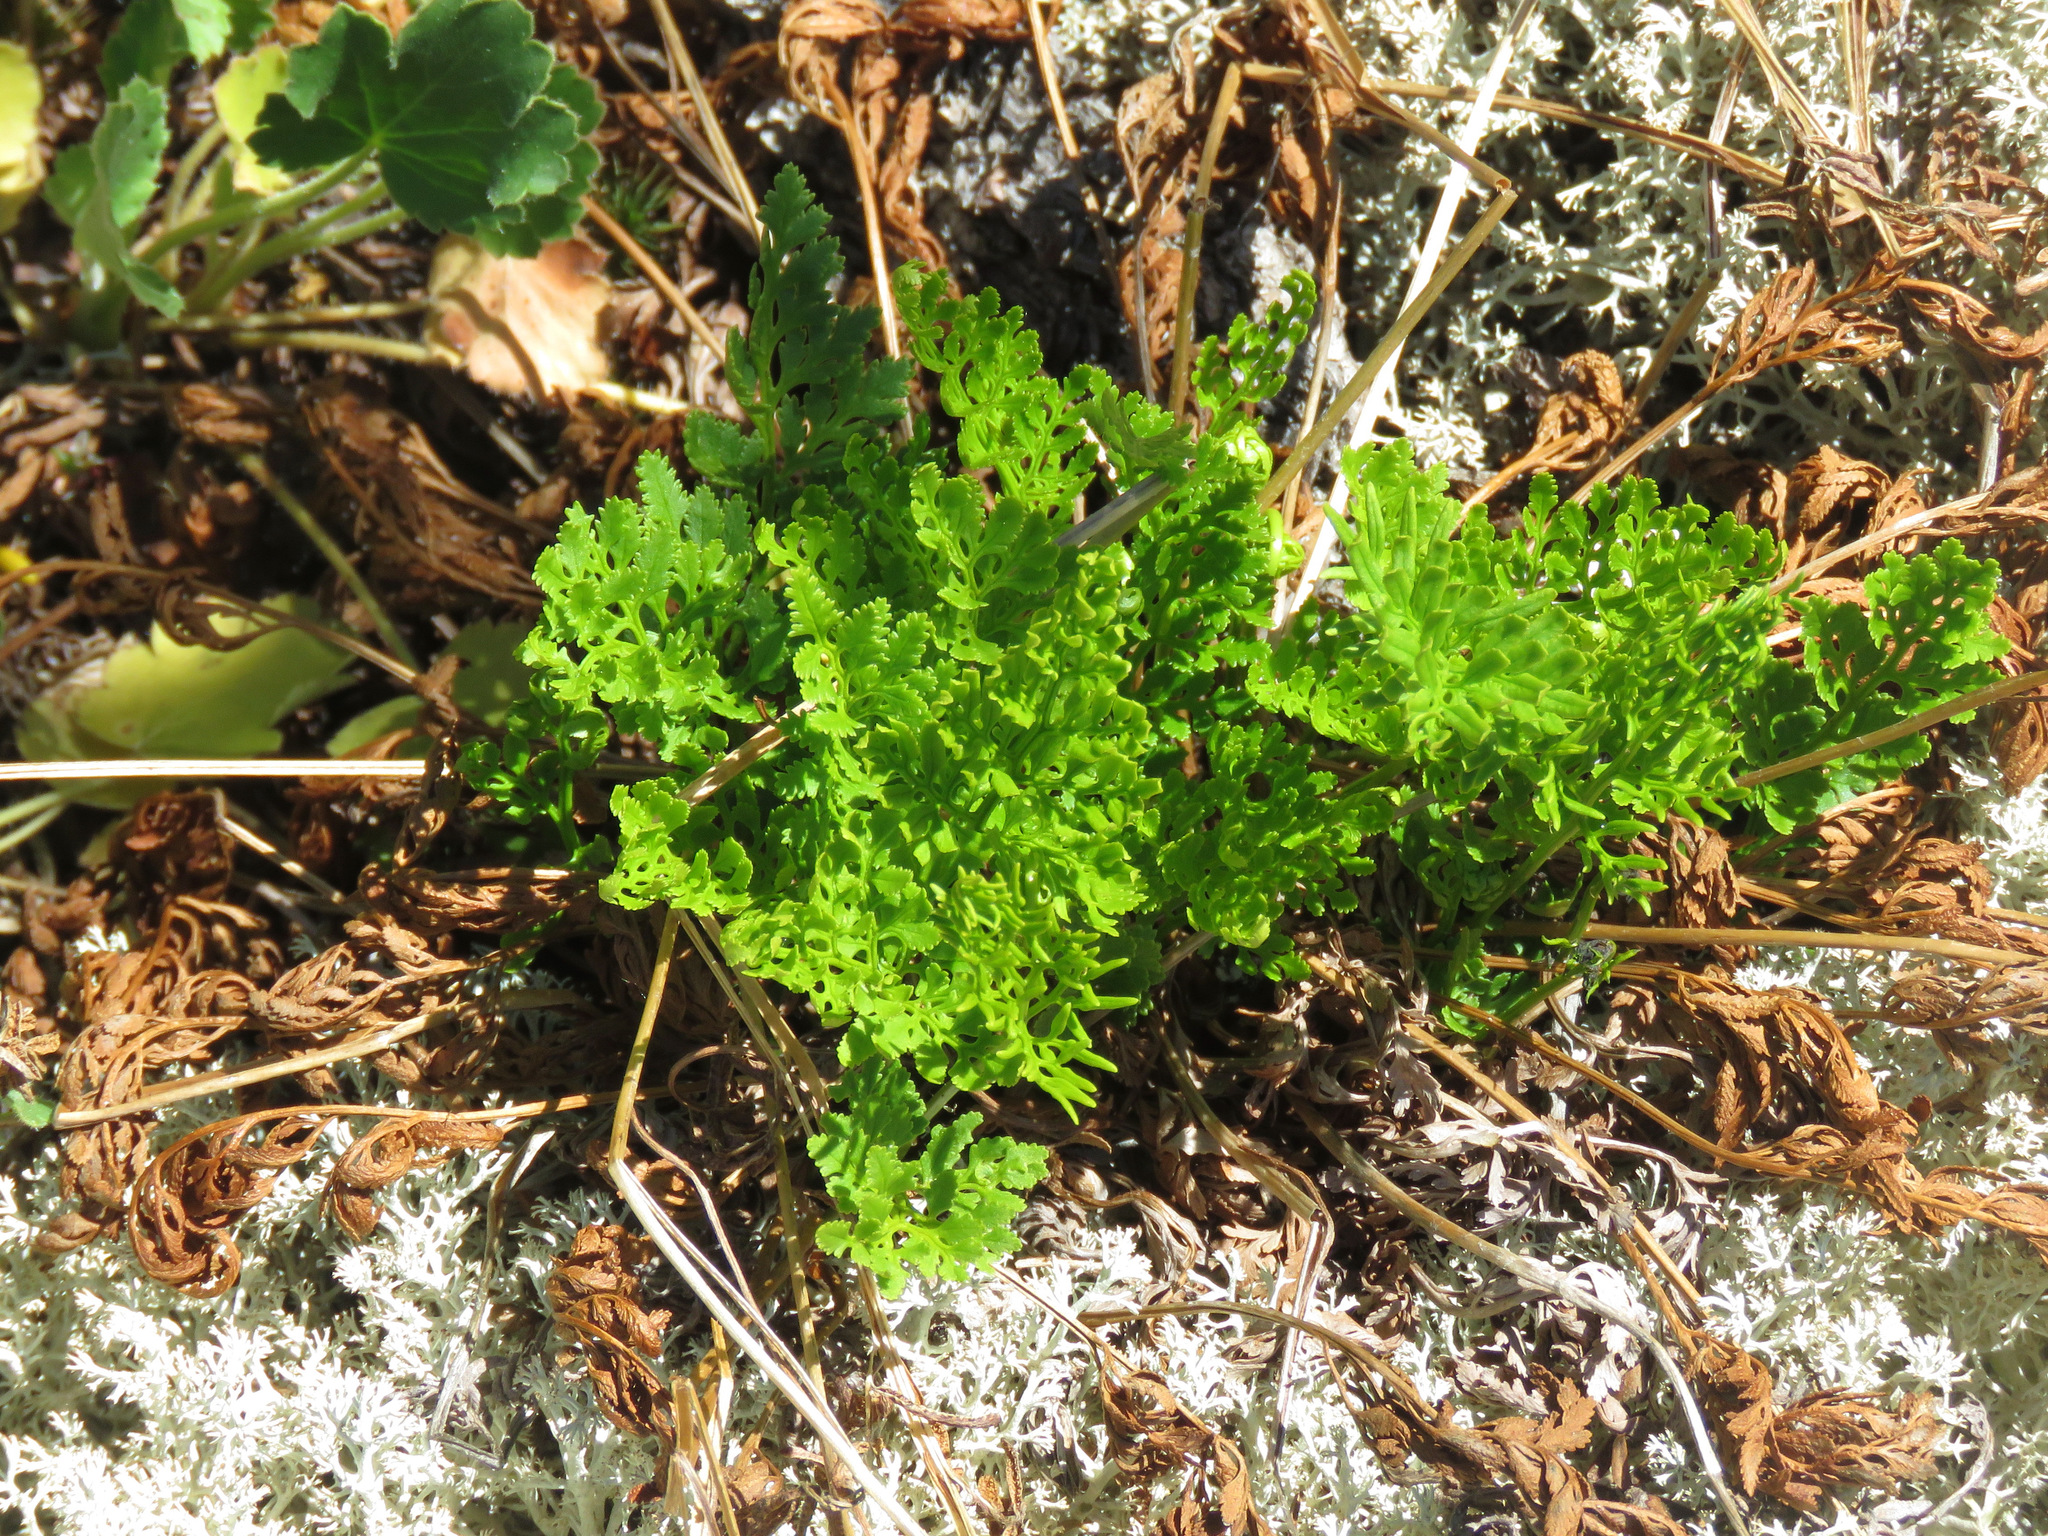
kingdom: Plantae
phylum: Tracheophyta
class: Polypodiopsida
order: Polypodiales
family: Pteridaceae
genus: Cryptogramma
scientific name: Cryptogramma acrostichoides
